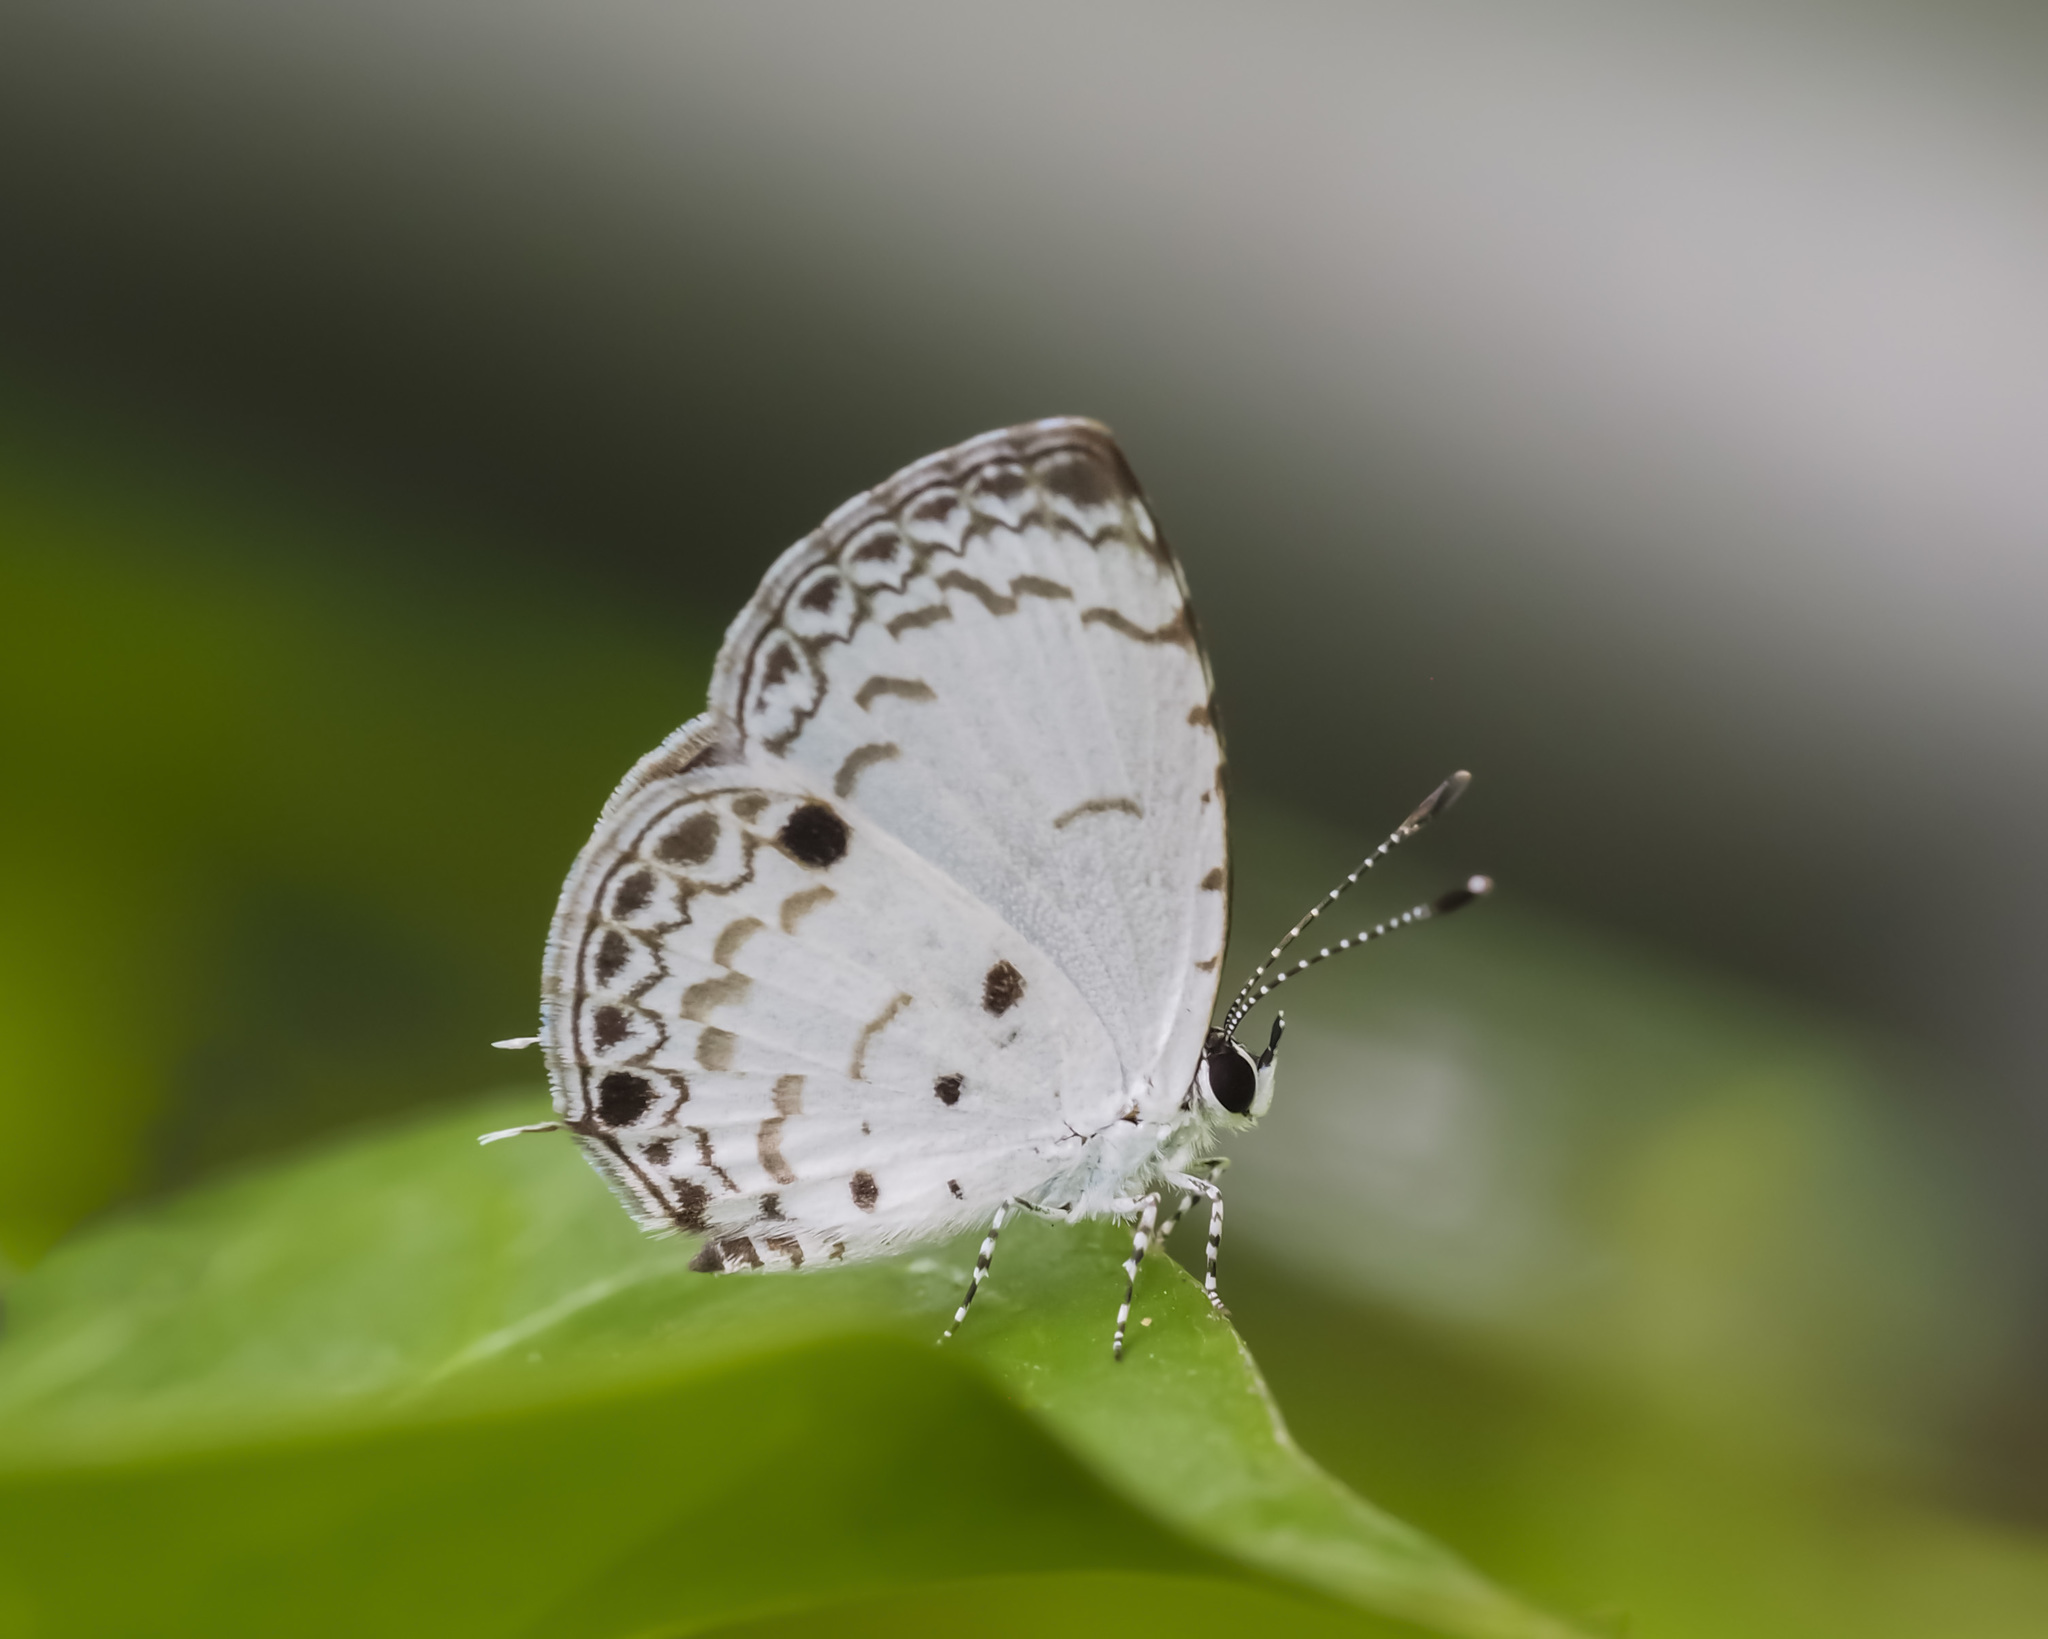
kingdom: Animalia
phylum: Arthropoda
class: Insecta
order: Lepidoptera
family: Lycaenidae
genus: Megisba
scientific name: Megisba malaya
